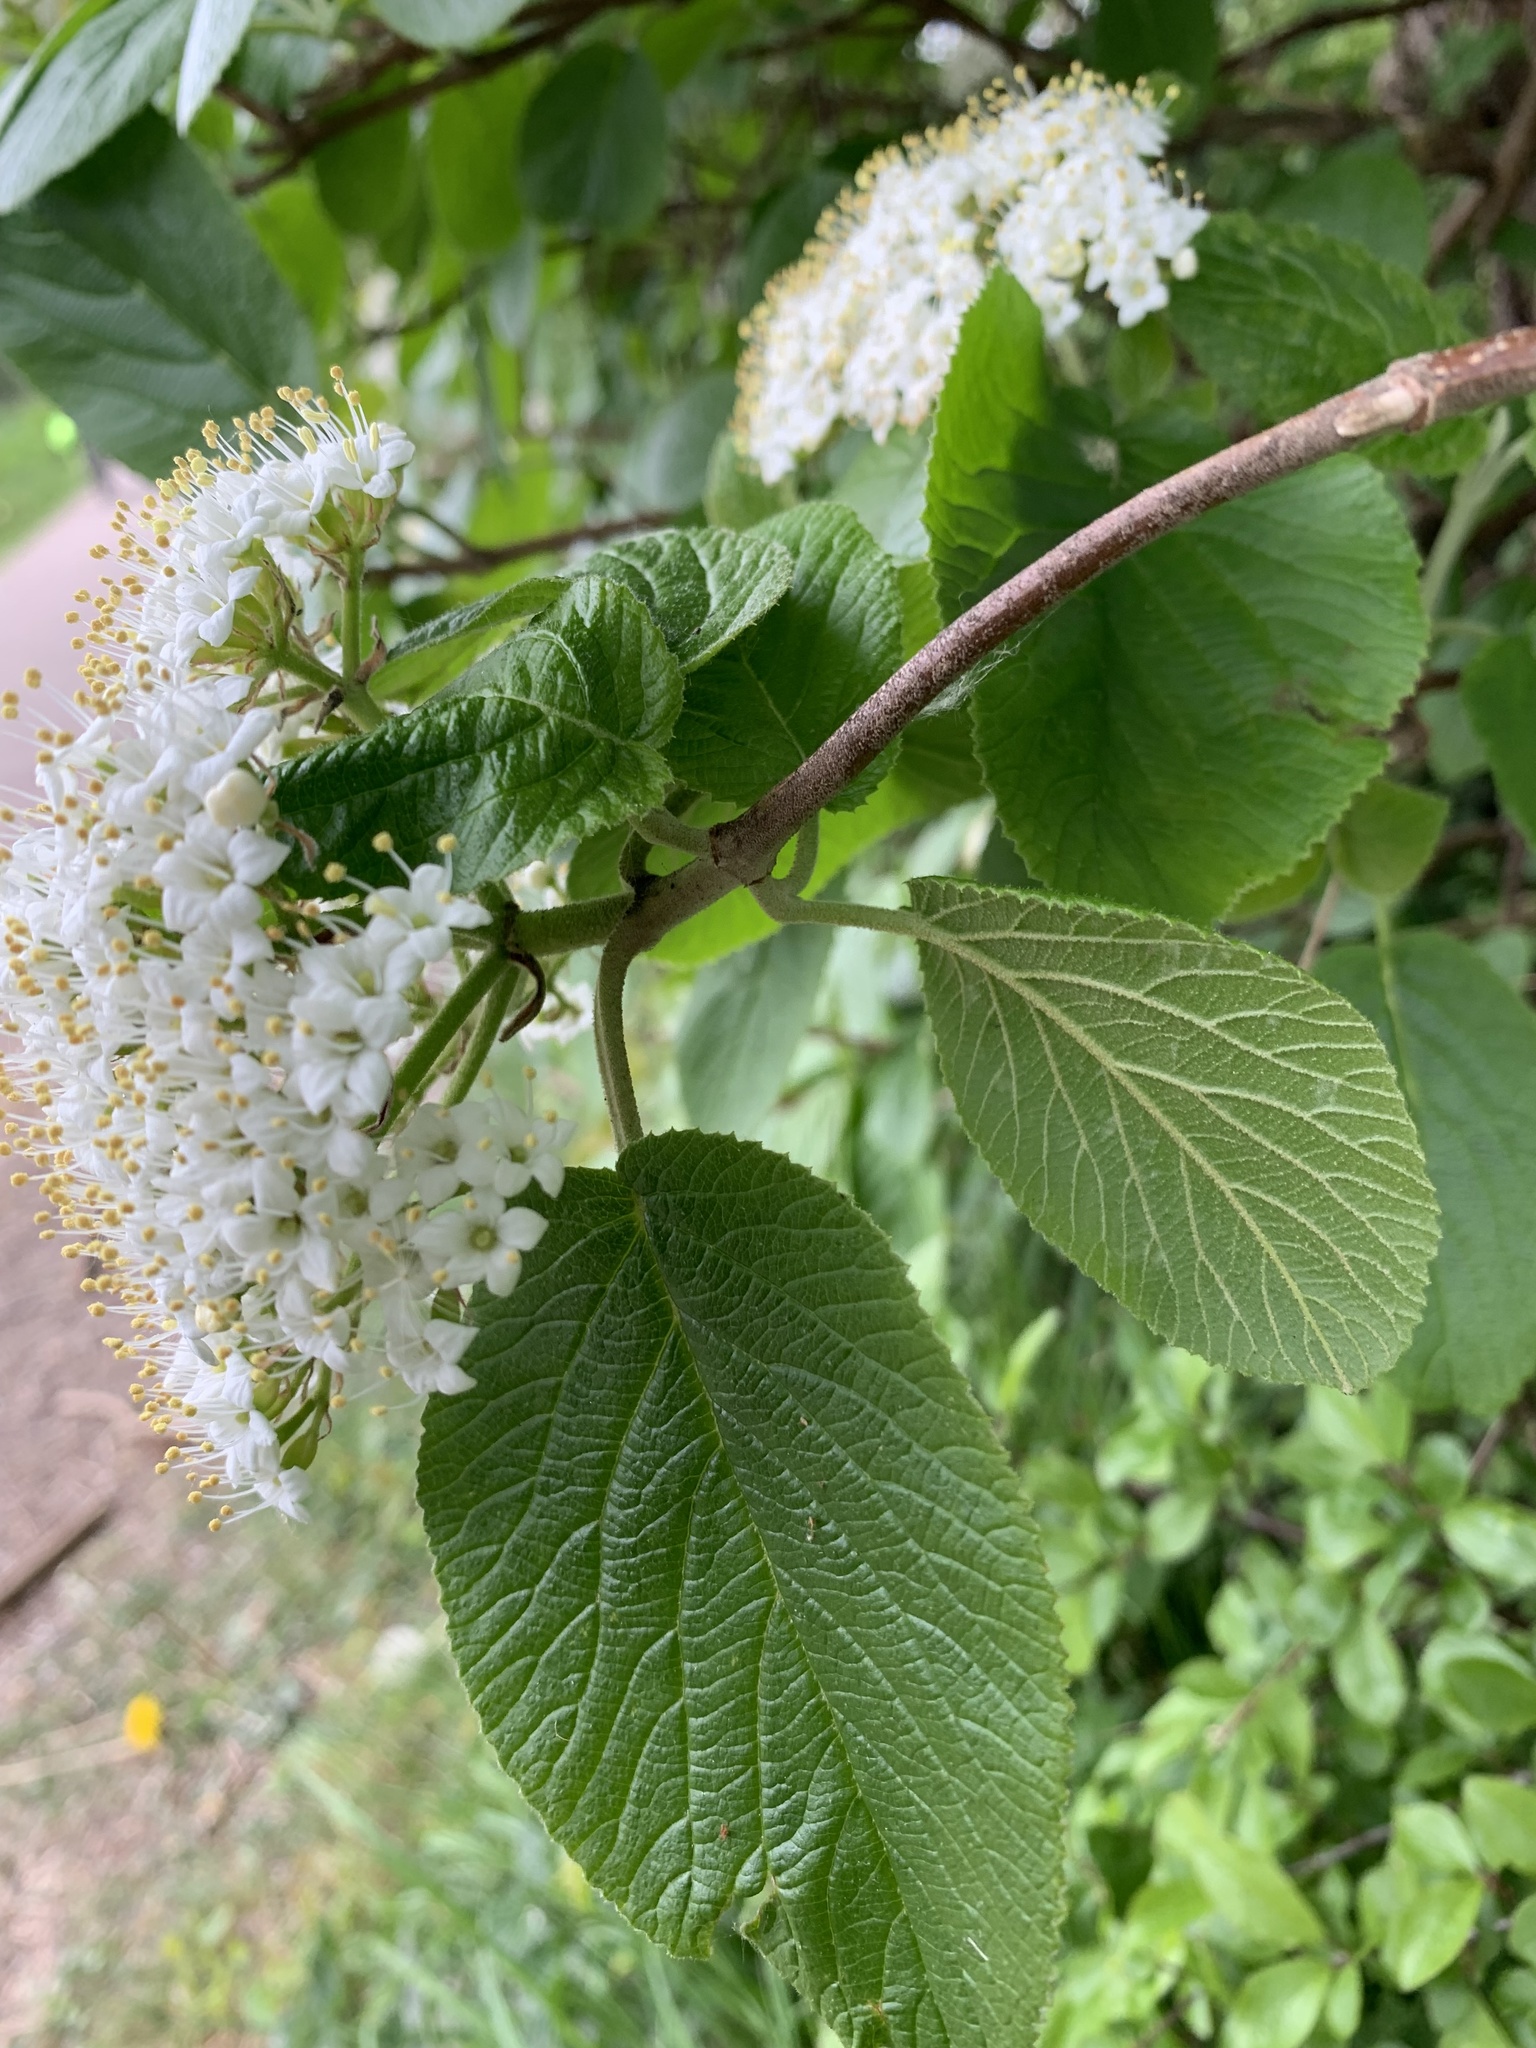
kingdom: Plantae
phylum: Tracheophyta
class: Magnoliopsida
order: Dipsacales
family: Viburnaceae
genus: Viburnum
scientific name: Viburnum lantana
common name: Wayfaring tree
